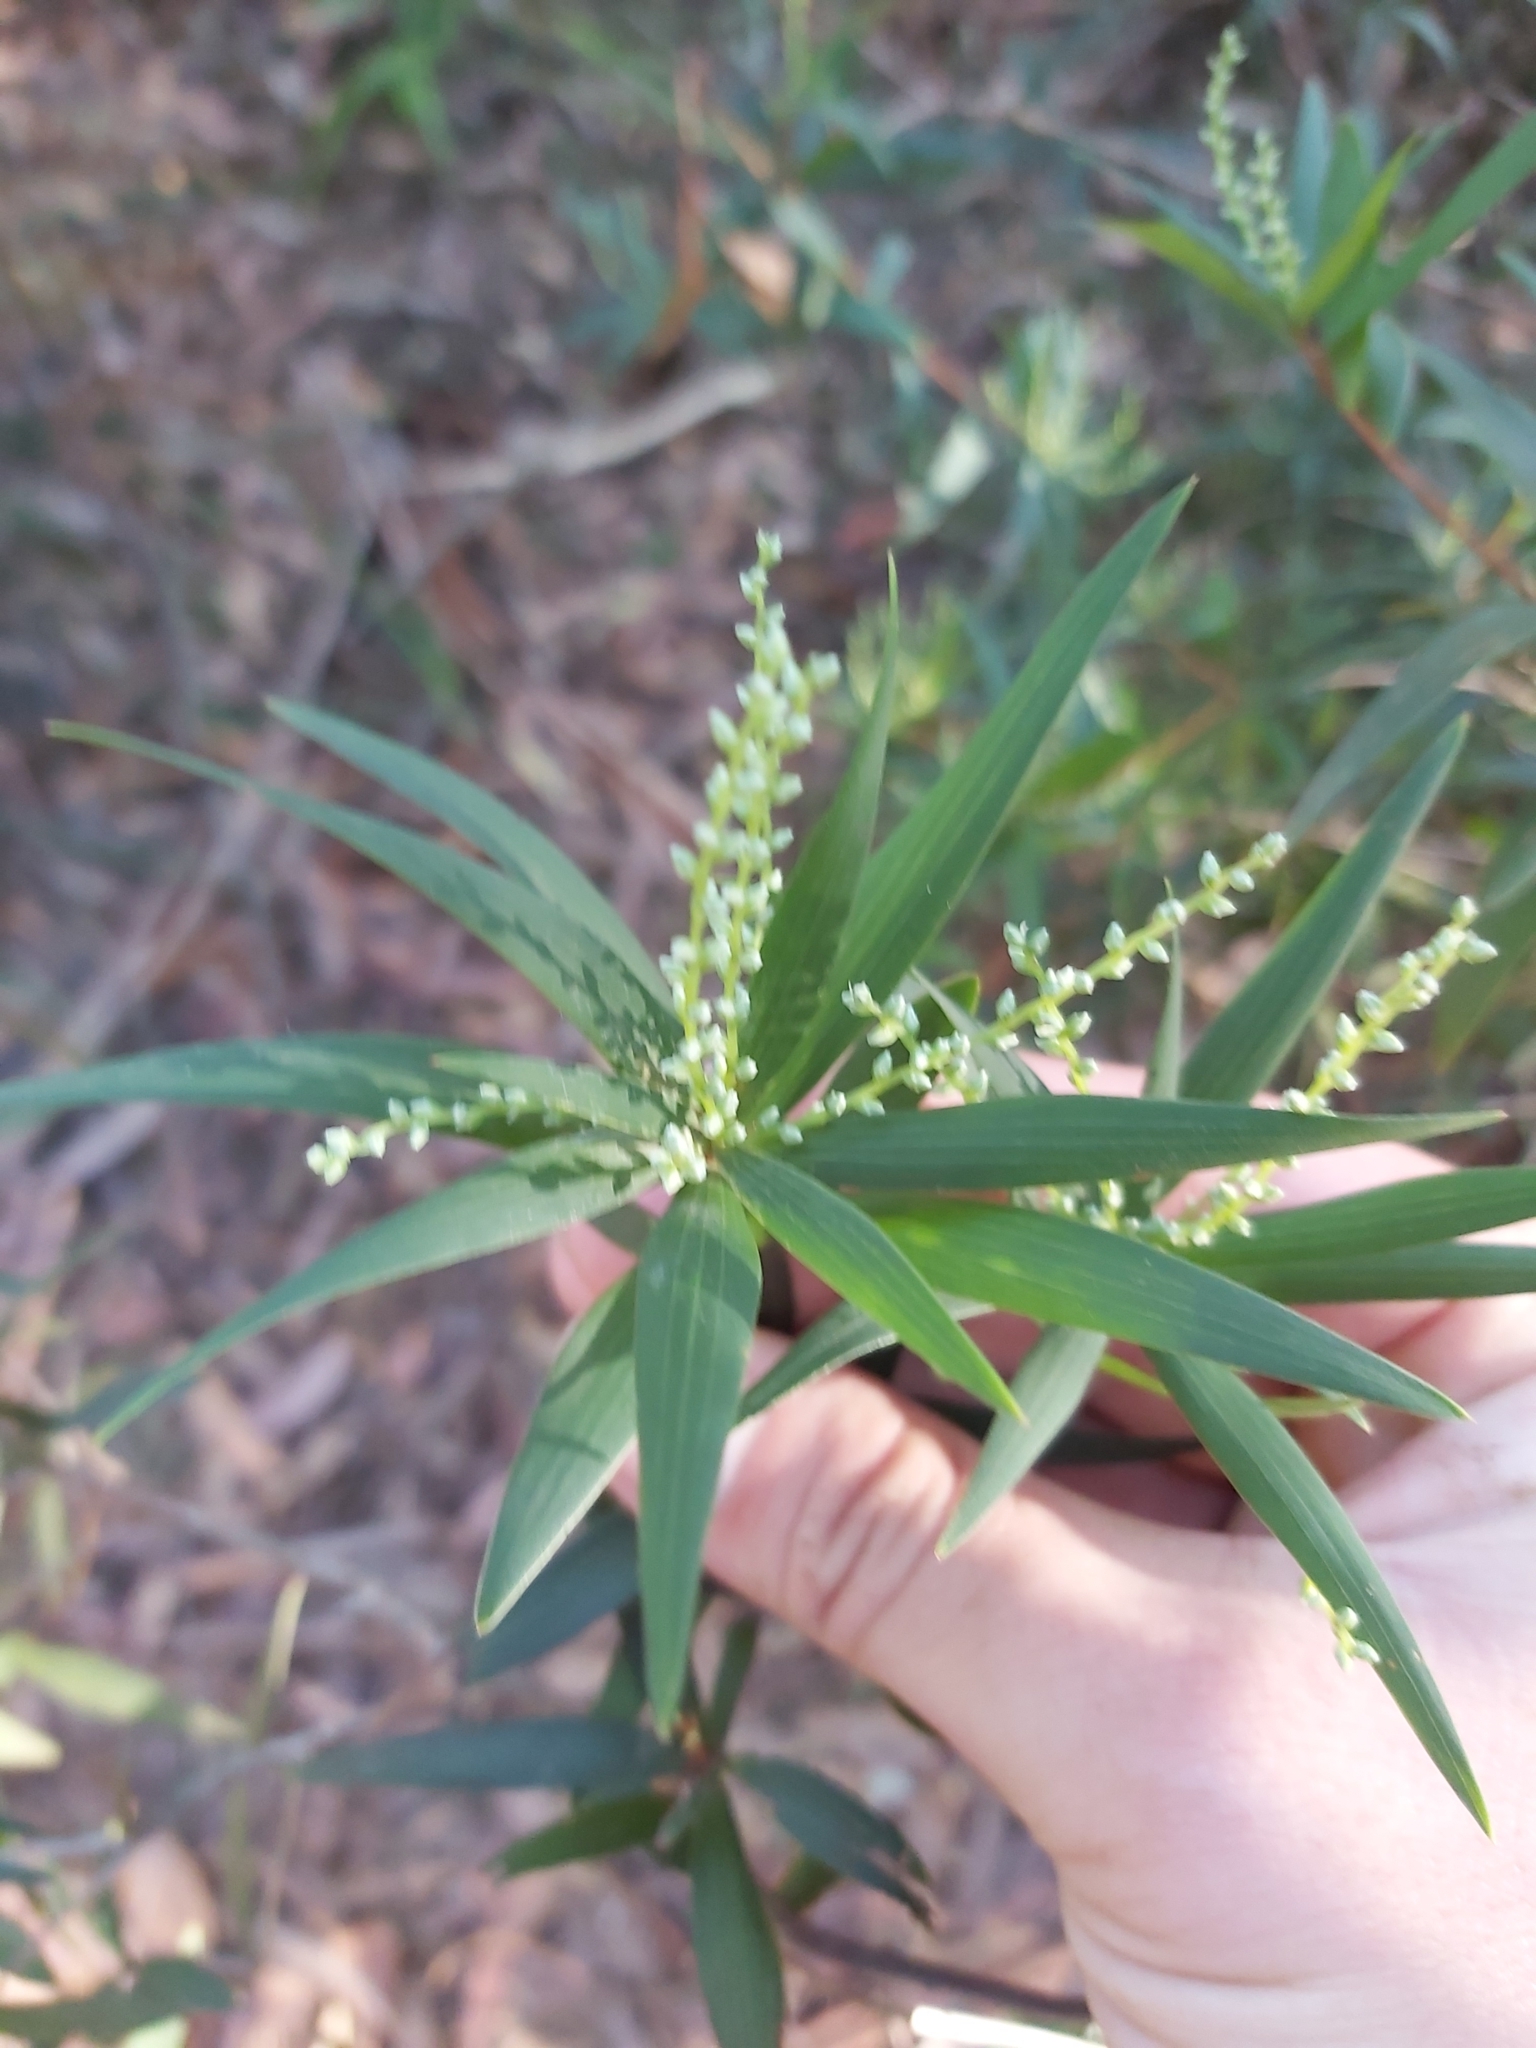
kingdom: Plantae
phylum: Tracheophyta
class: Magnoliopsida
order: Ericales
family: Ericaceae
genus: Leucopogon
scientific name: Leucopogon lanceolatus
